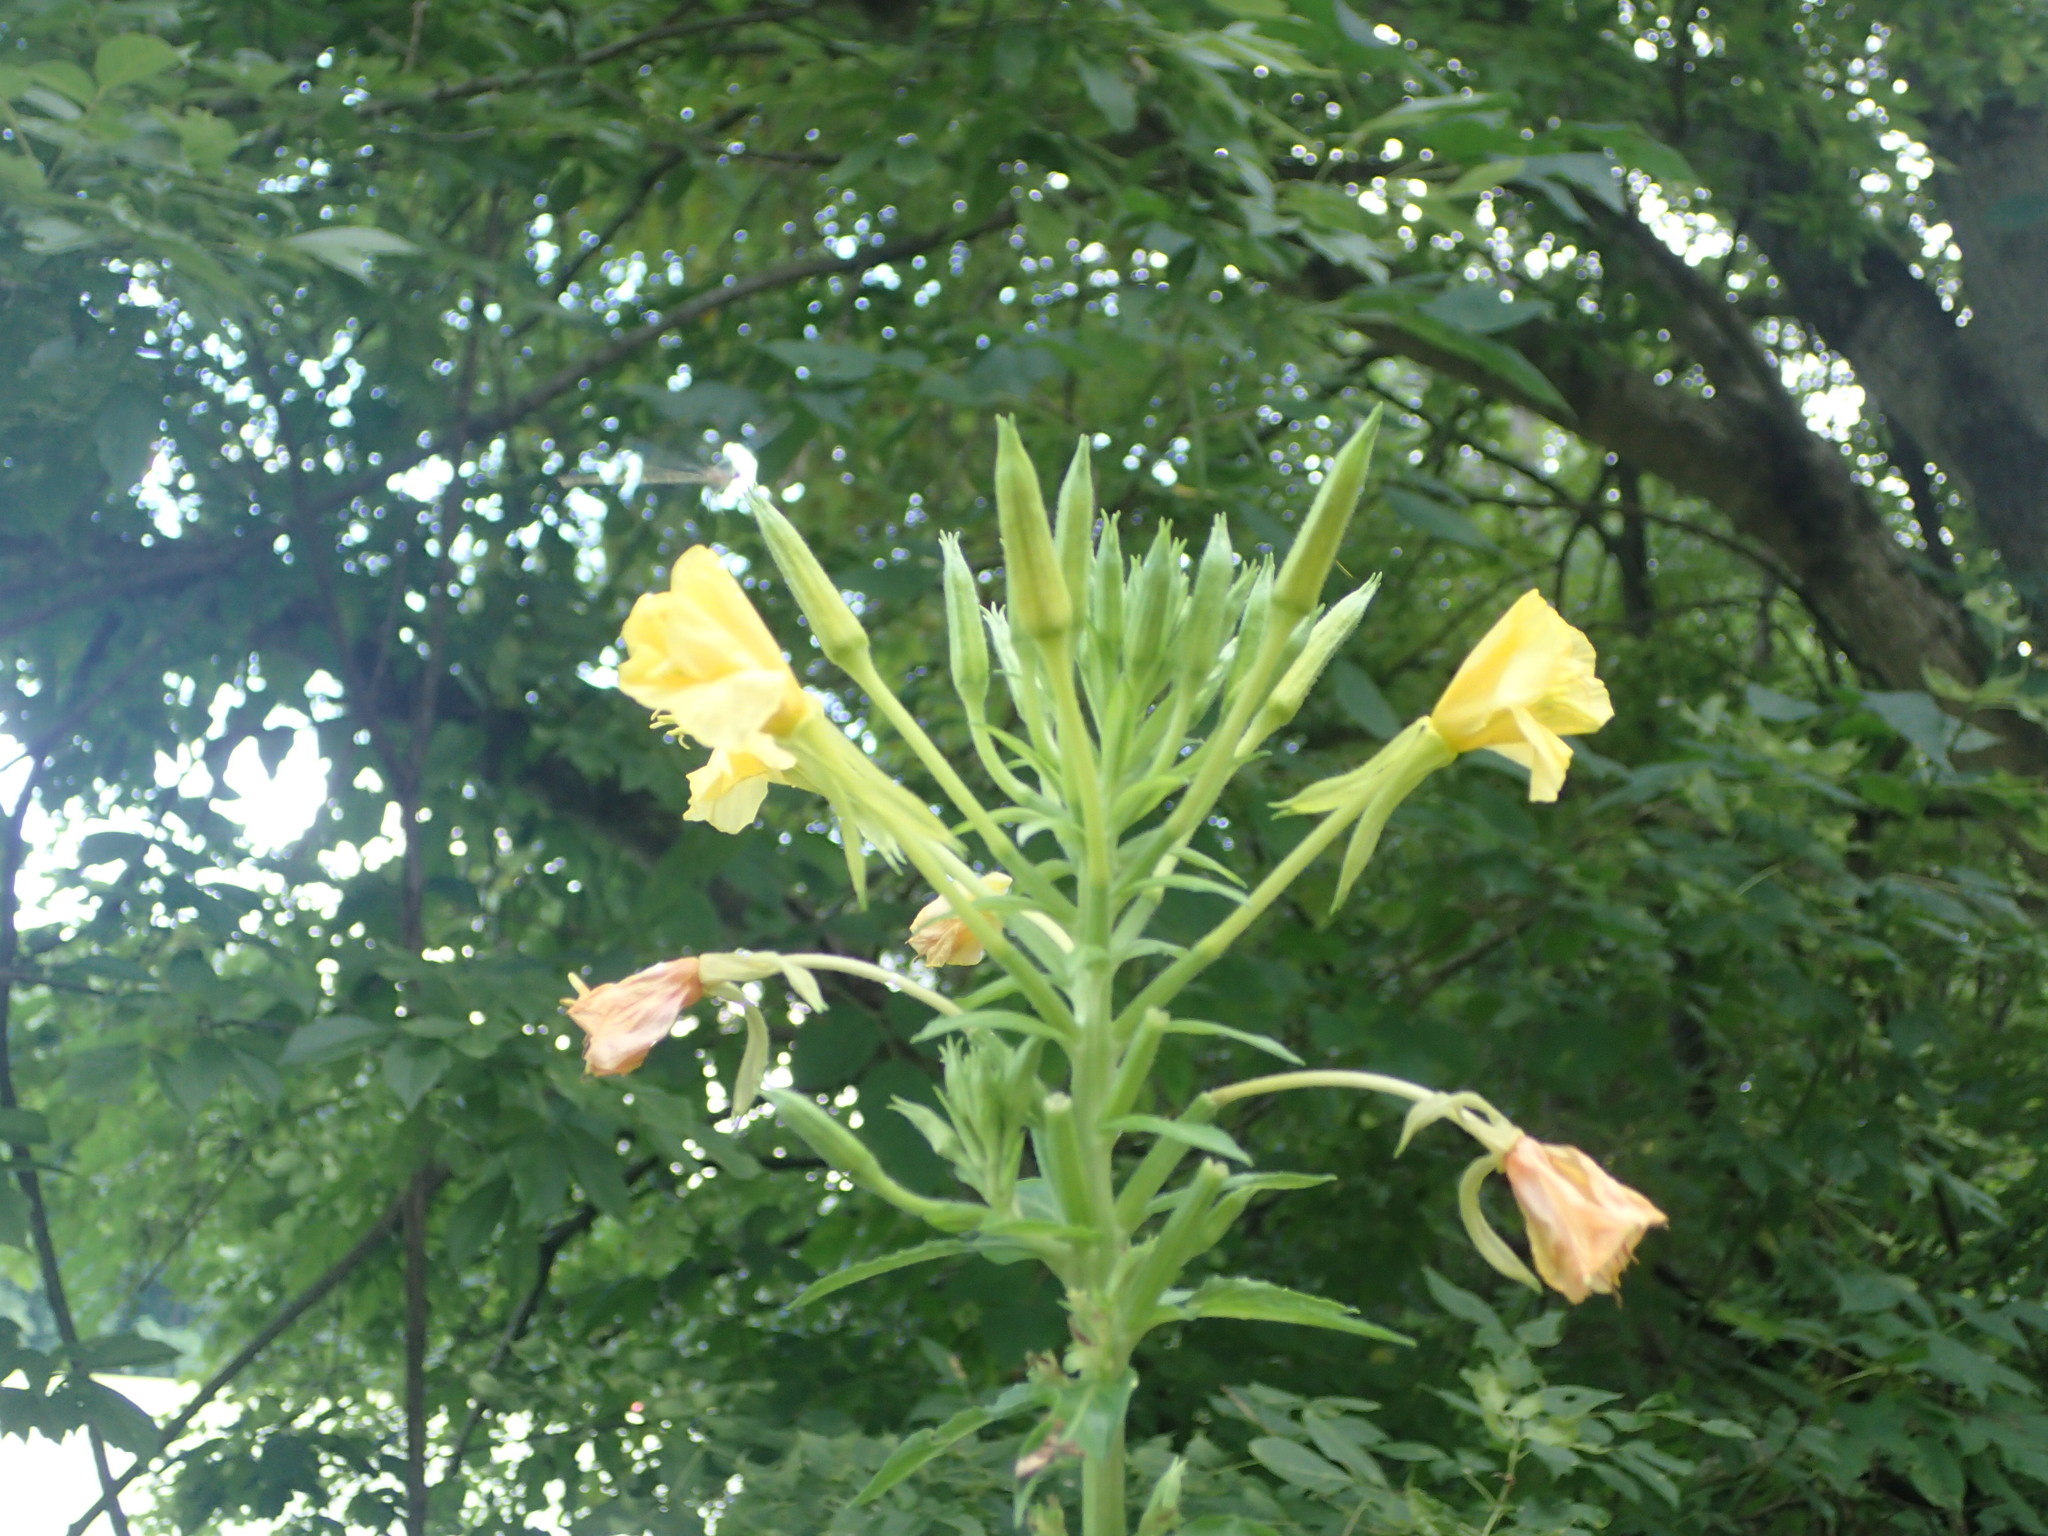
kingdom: Plantae
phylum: Tracheophyta
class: Magnoliopsida
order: Myrtales
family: Onagraceae
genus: Oenothera
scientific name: Oenothera biennis
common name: Common evening-primrose
